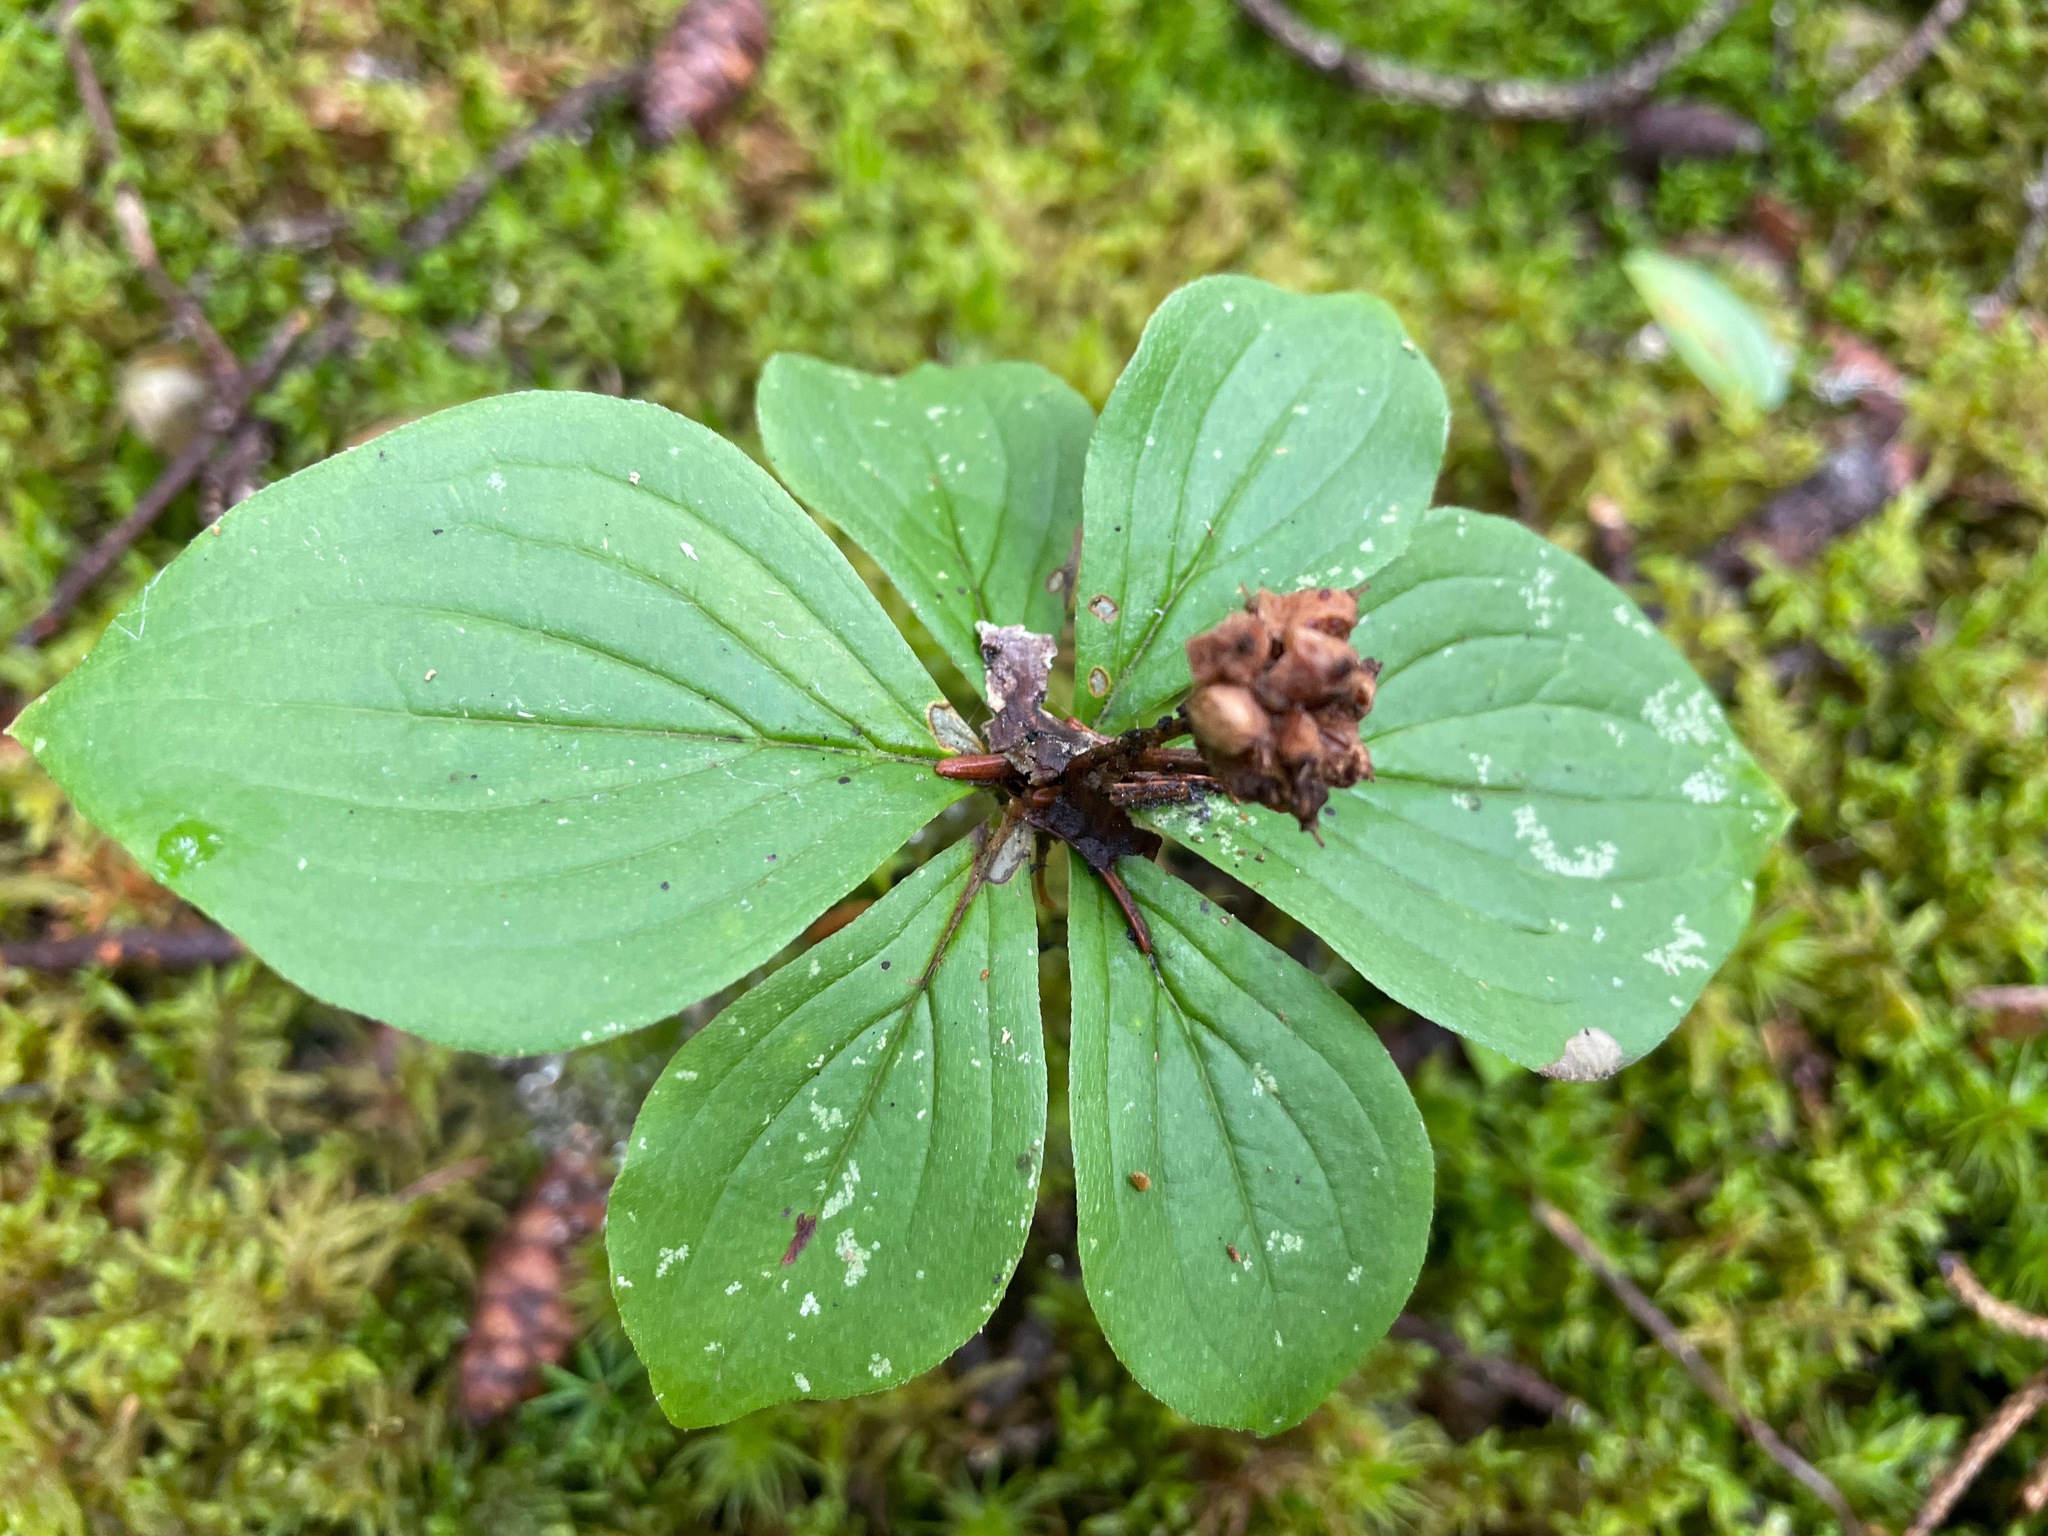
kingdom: Plantae
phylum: Tracheophyta
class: Magnoliopsida
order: Cornales
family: Cornaceae
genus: Cornus
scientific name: Cornus canadensis
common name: Creeping dogwood
